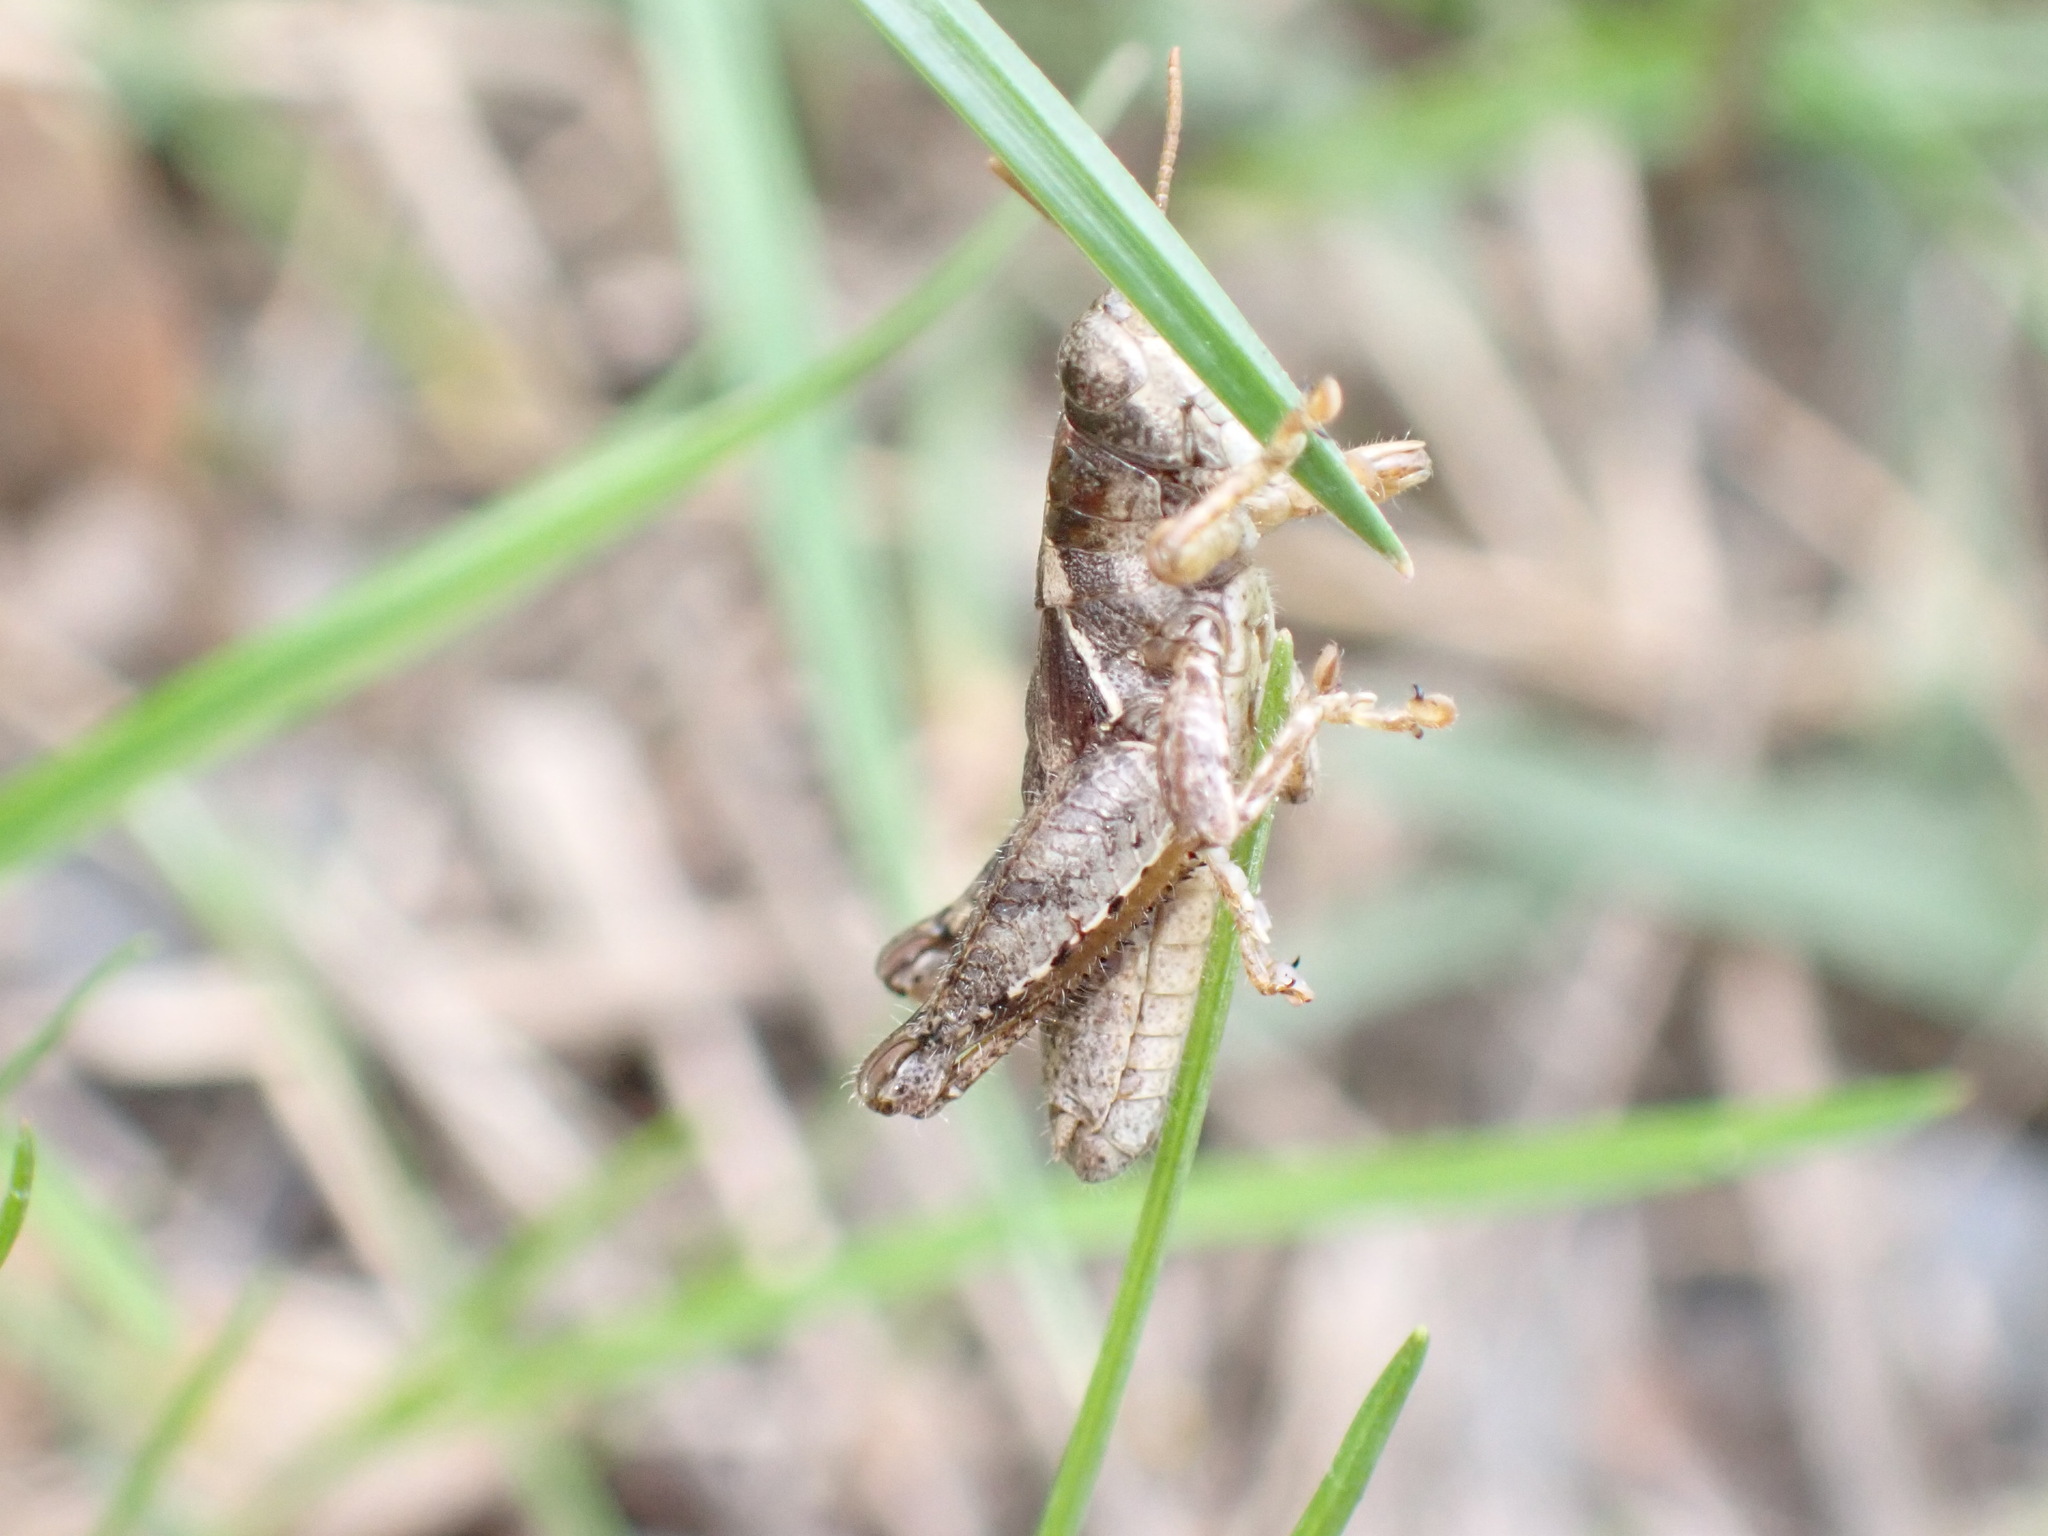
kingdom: Animalia
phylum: Arthropoda
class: Insecta
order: Orthoptera
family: Acrididae
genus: Pezotettix
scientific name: Pezotettix giornae
